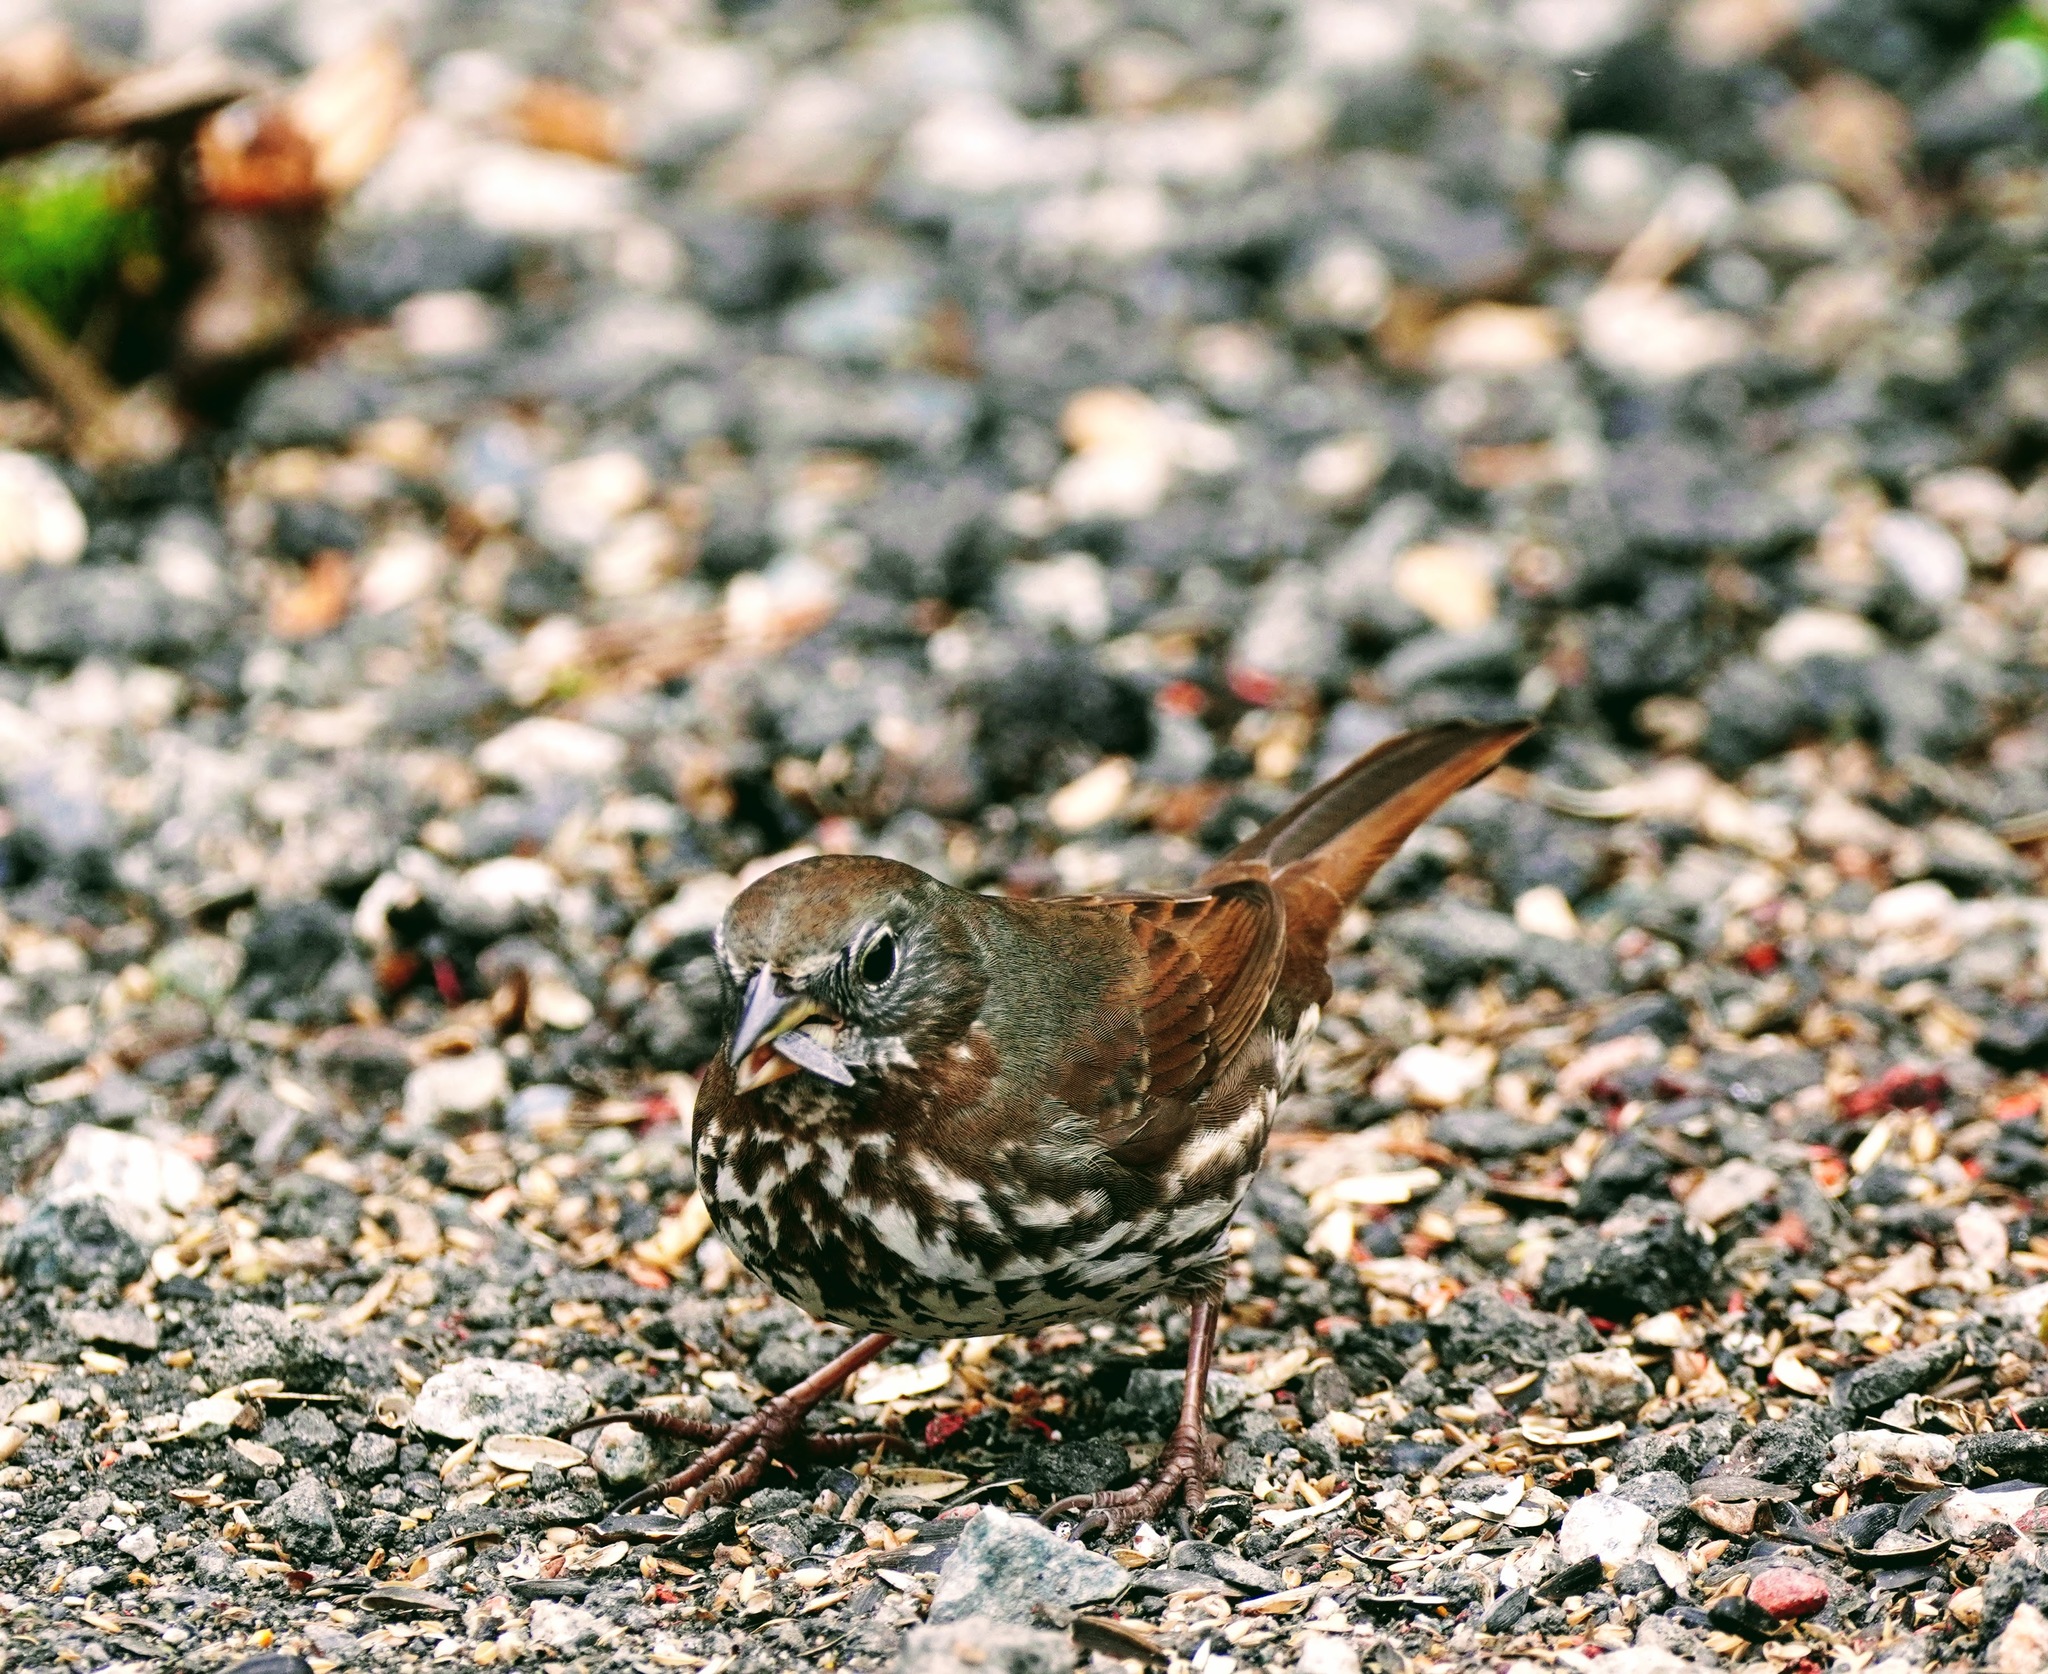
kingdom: Animalia
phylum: Chordata
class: Aves
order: Passeriformes
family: Passerellidae
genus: Passerella
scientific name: Passerella iliaca
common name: Fox sparrow
